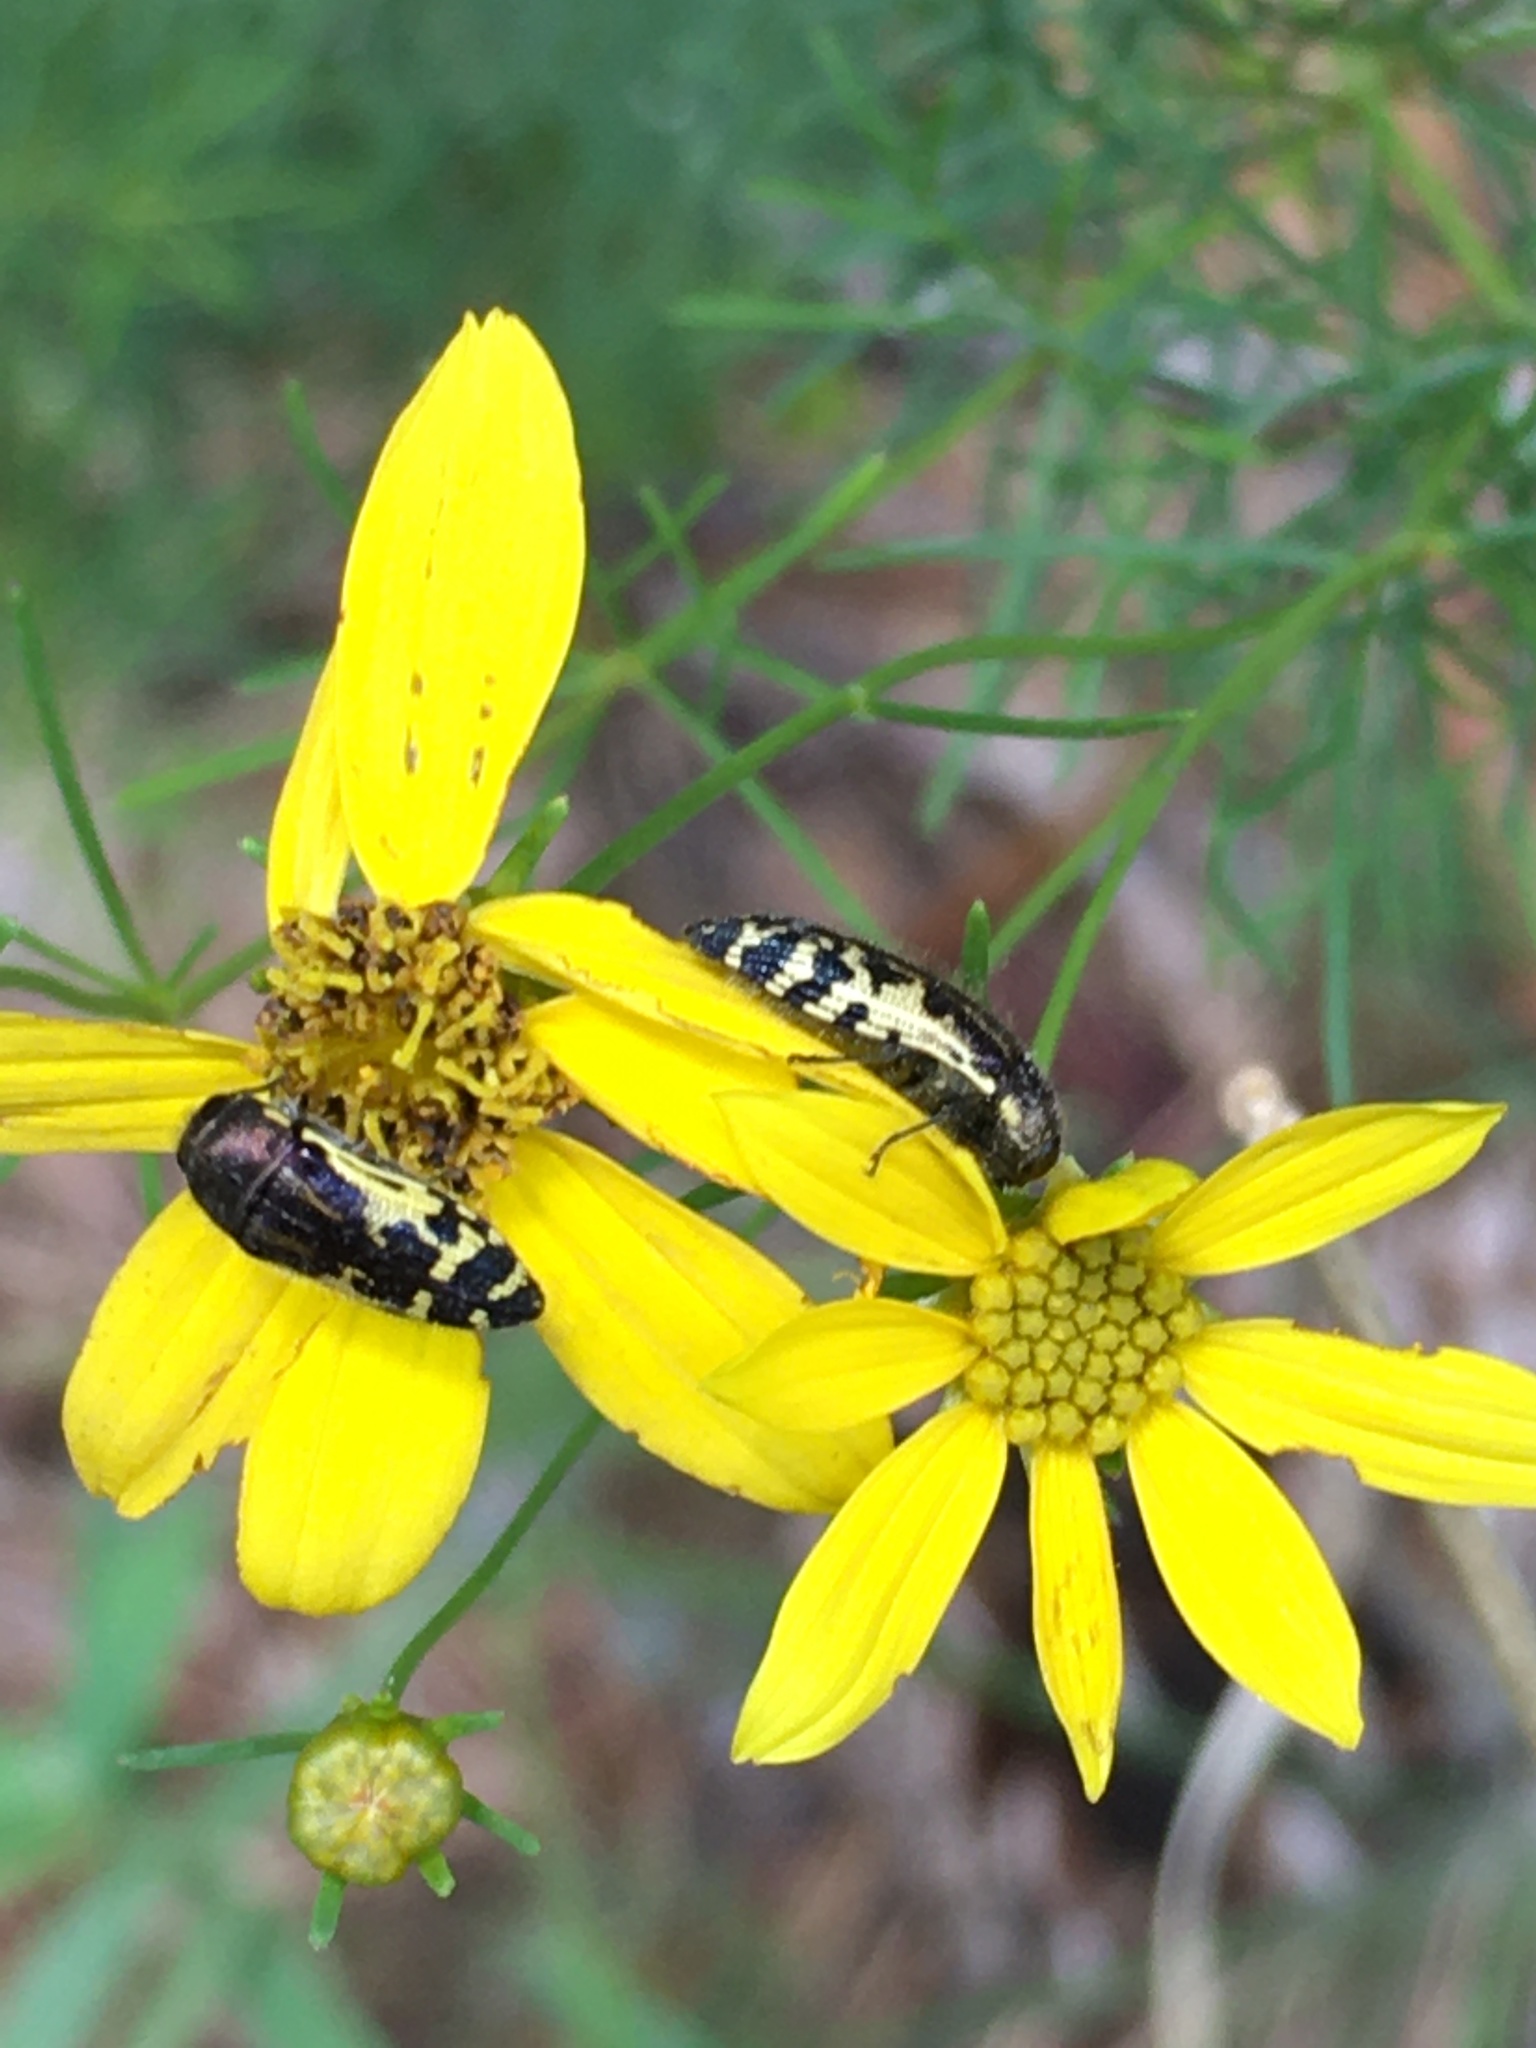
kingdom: Animalia
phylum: Arthropoda
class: Insecta
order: Coleoptera
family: Buprestidae
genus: Acmaeodera
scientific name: Acmaeodera pulchella
